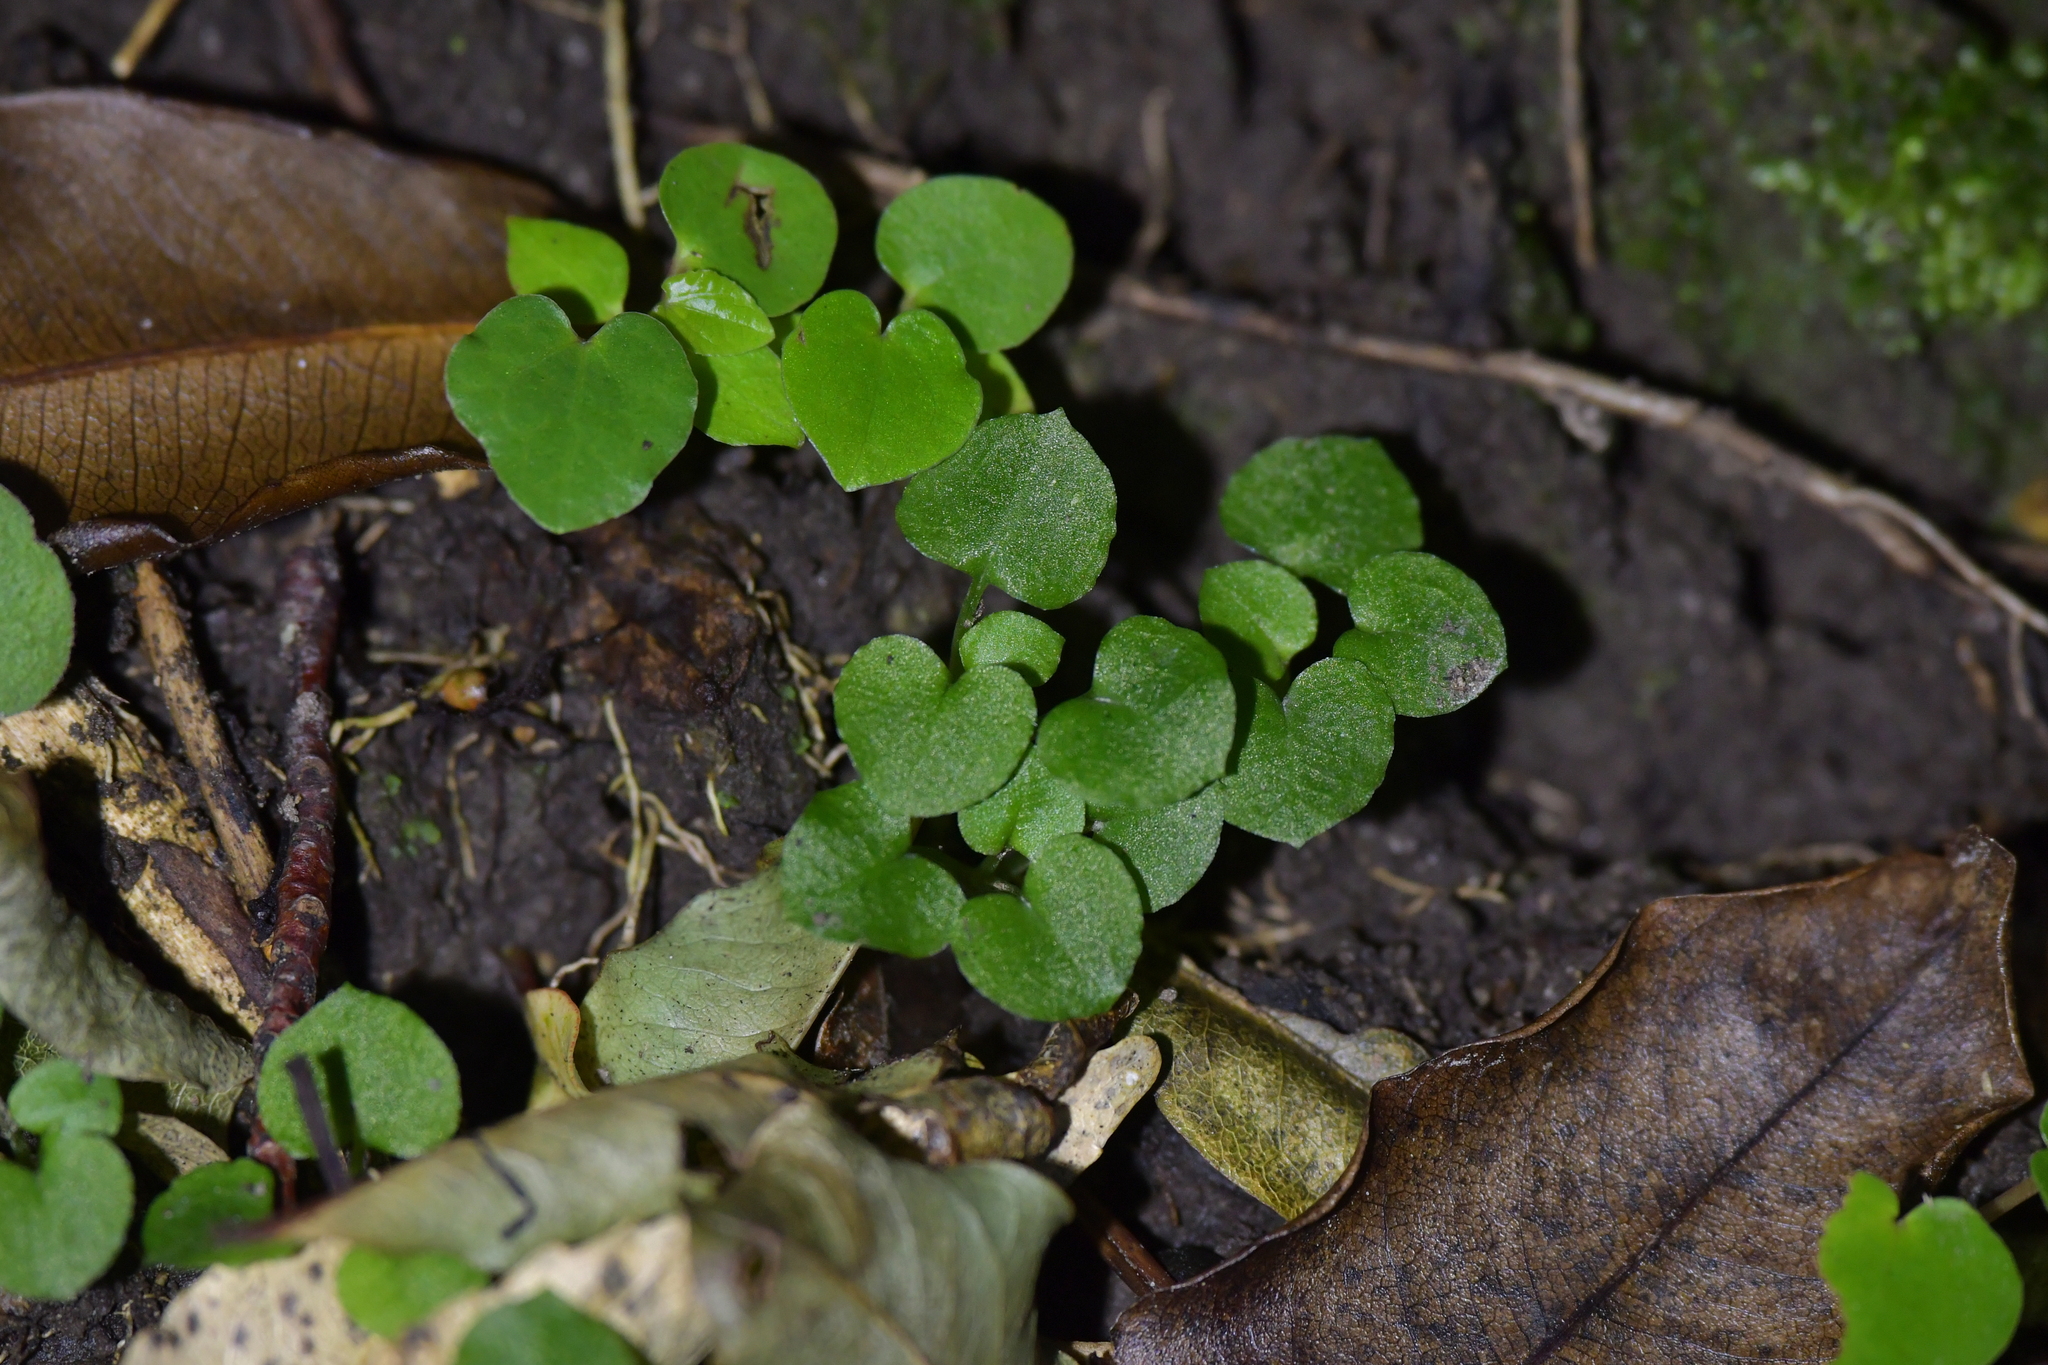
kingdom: Plantae
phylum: Tracheophyta
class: Liliopsida
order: Asparagales
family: Orchidaceae
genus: Pterostylis
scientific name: Pterostylis alobula
